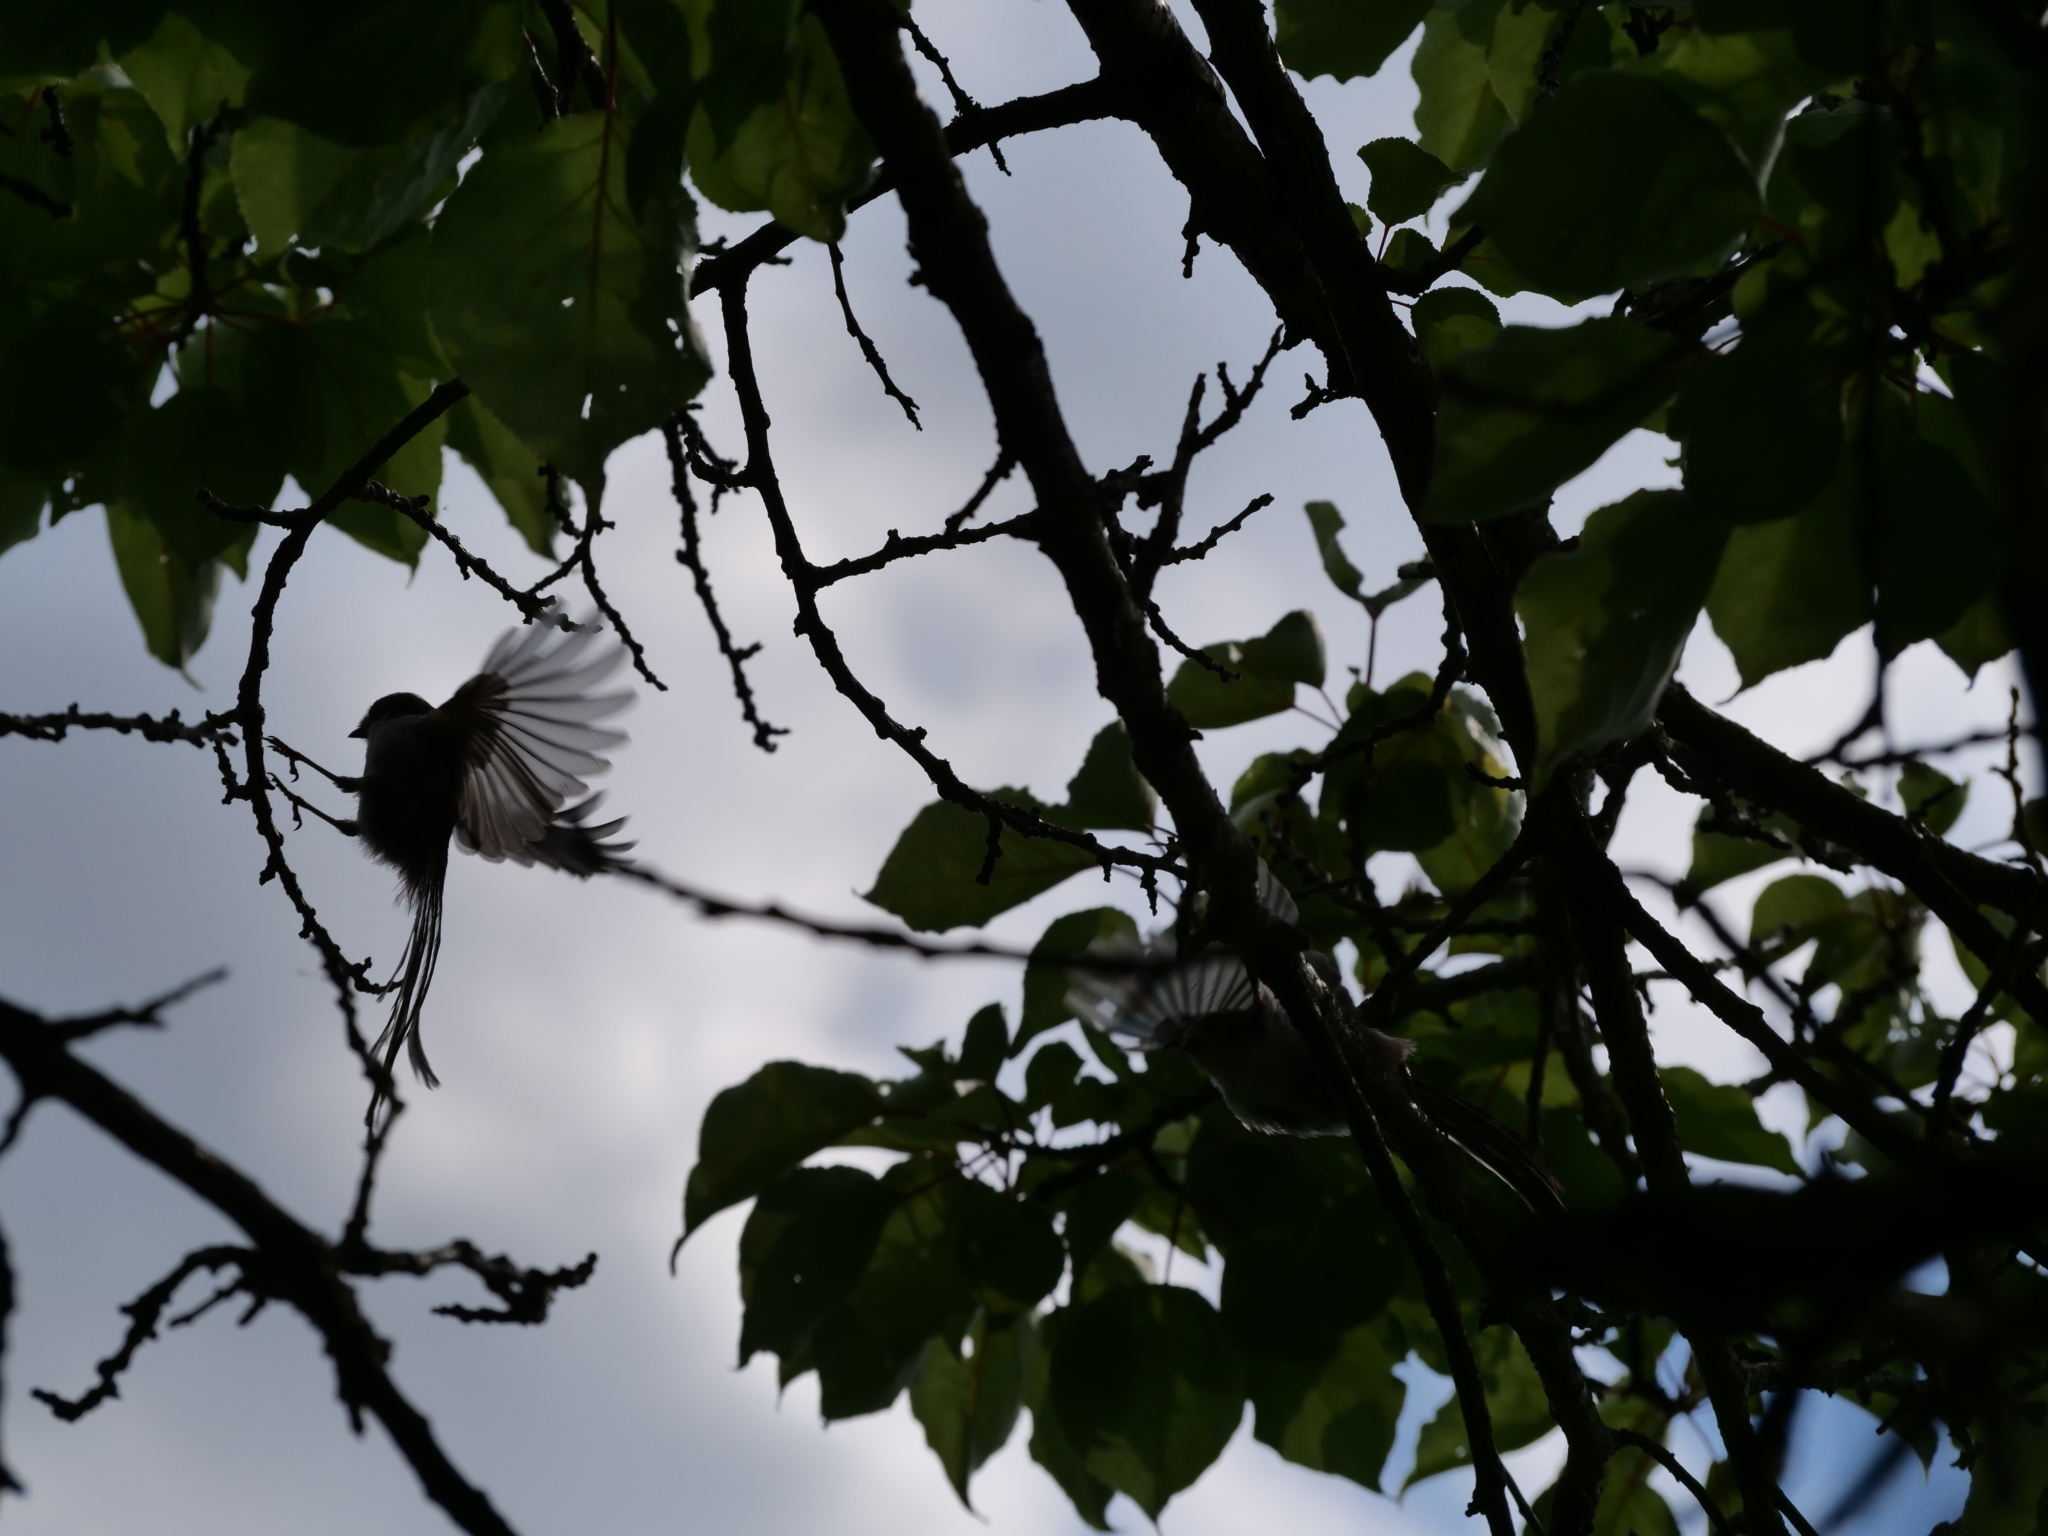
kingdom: Animalia
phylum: Chordata
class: Aves
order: Passeriformes
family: Aegithalidae
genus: Aegithalos
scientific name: Aegithalos caudatus
